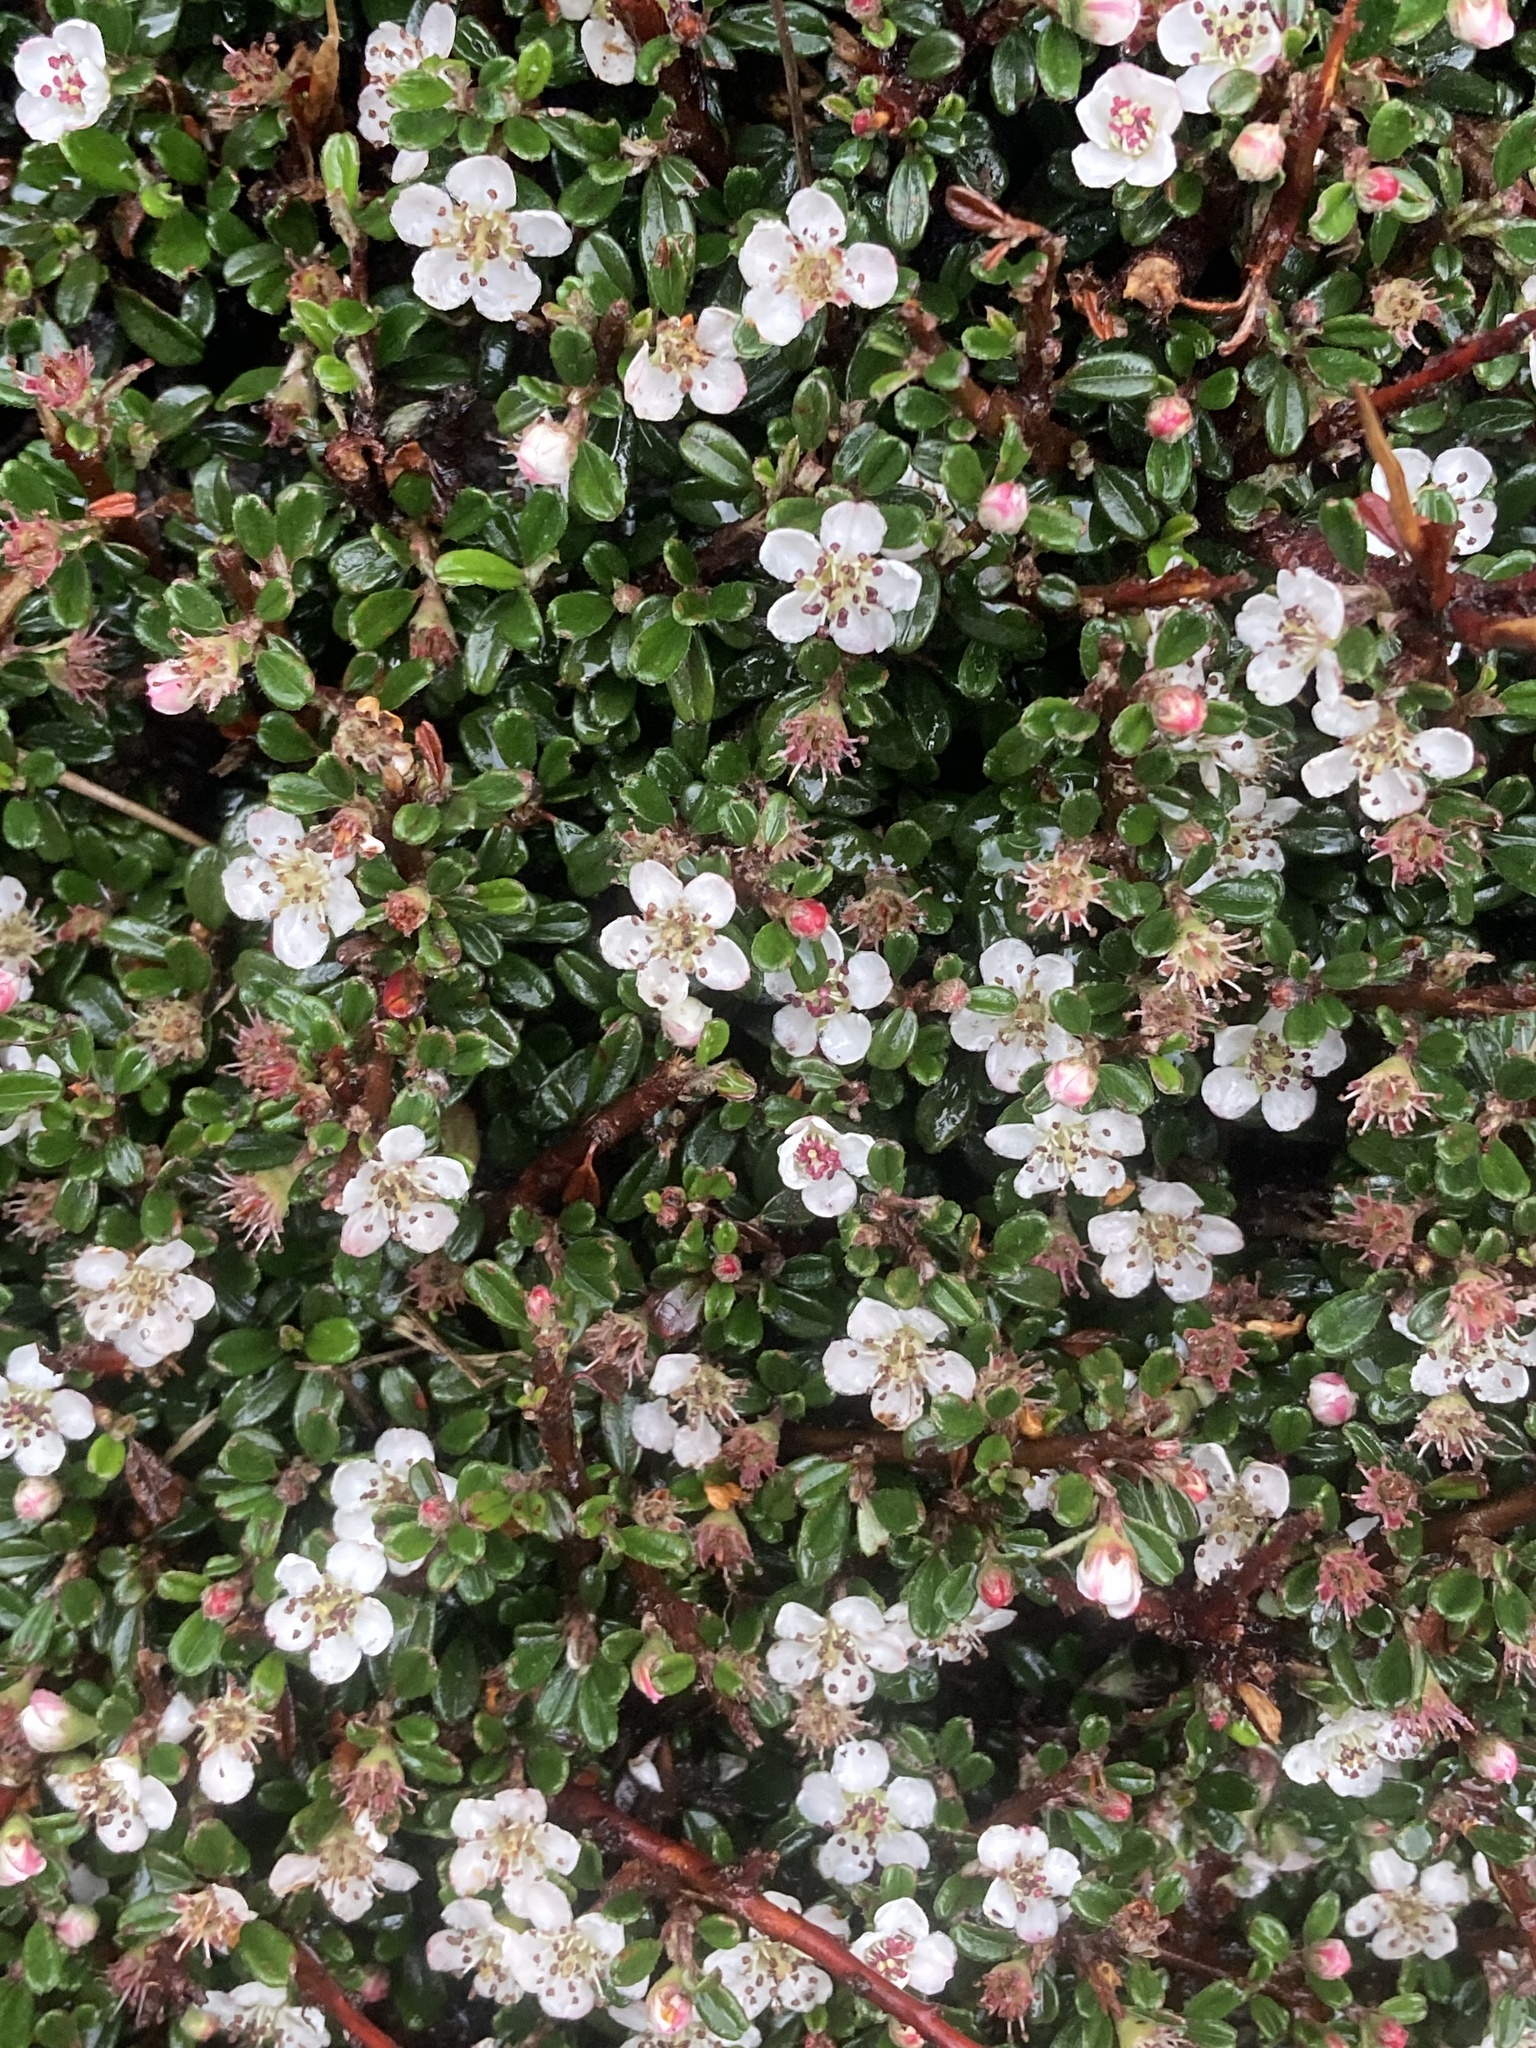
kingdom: Plantae
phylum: Tracheophyta
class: Magnoliopsida
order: Rosales
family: Rosaceae
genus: Cotoneaster
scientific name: Cotoneaster microphyllus
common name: Small-leaved cotoneaster
